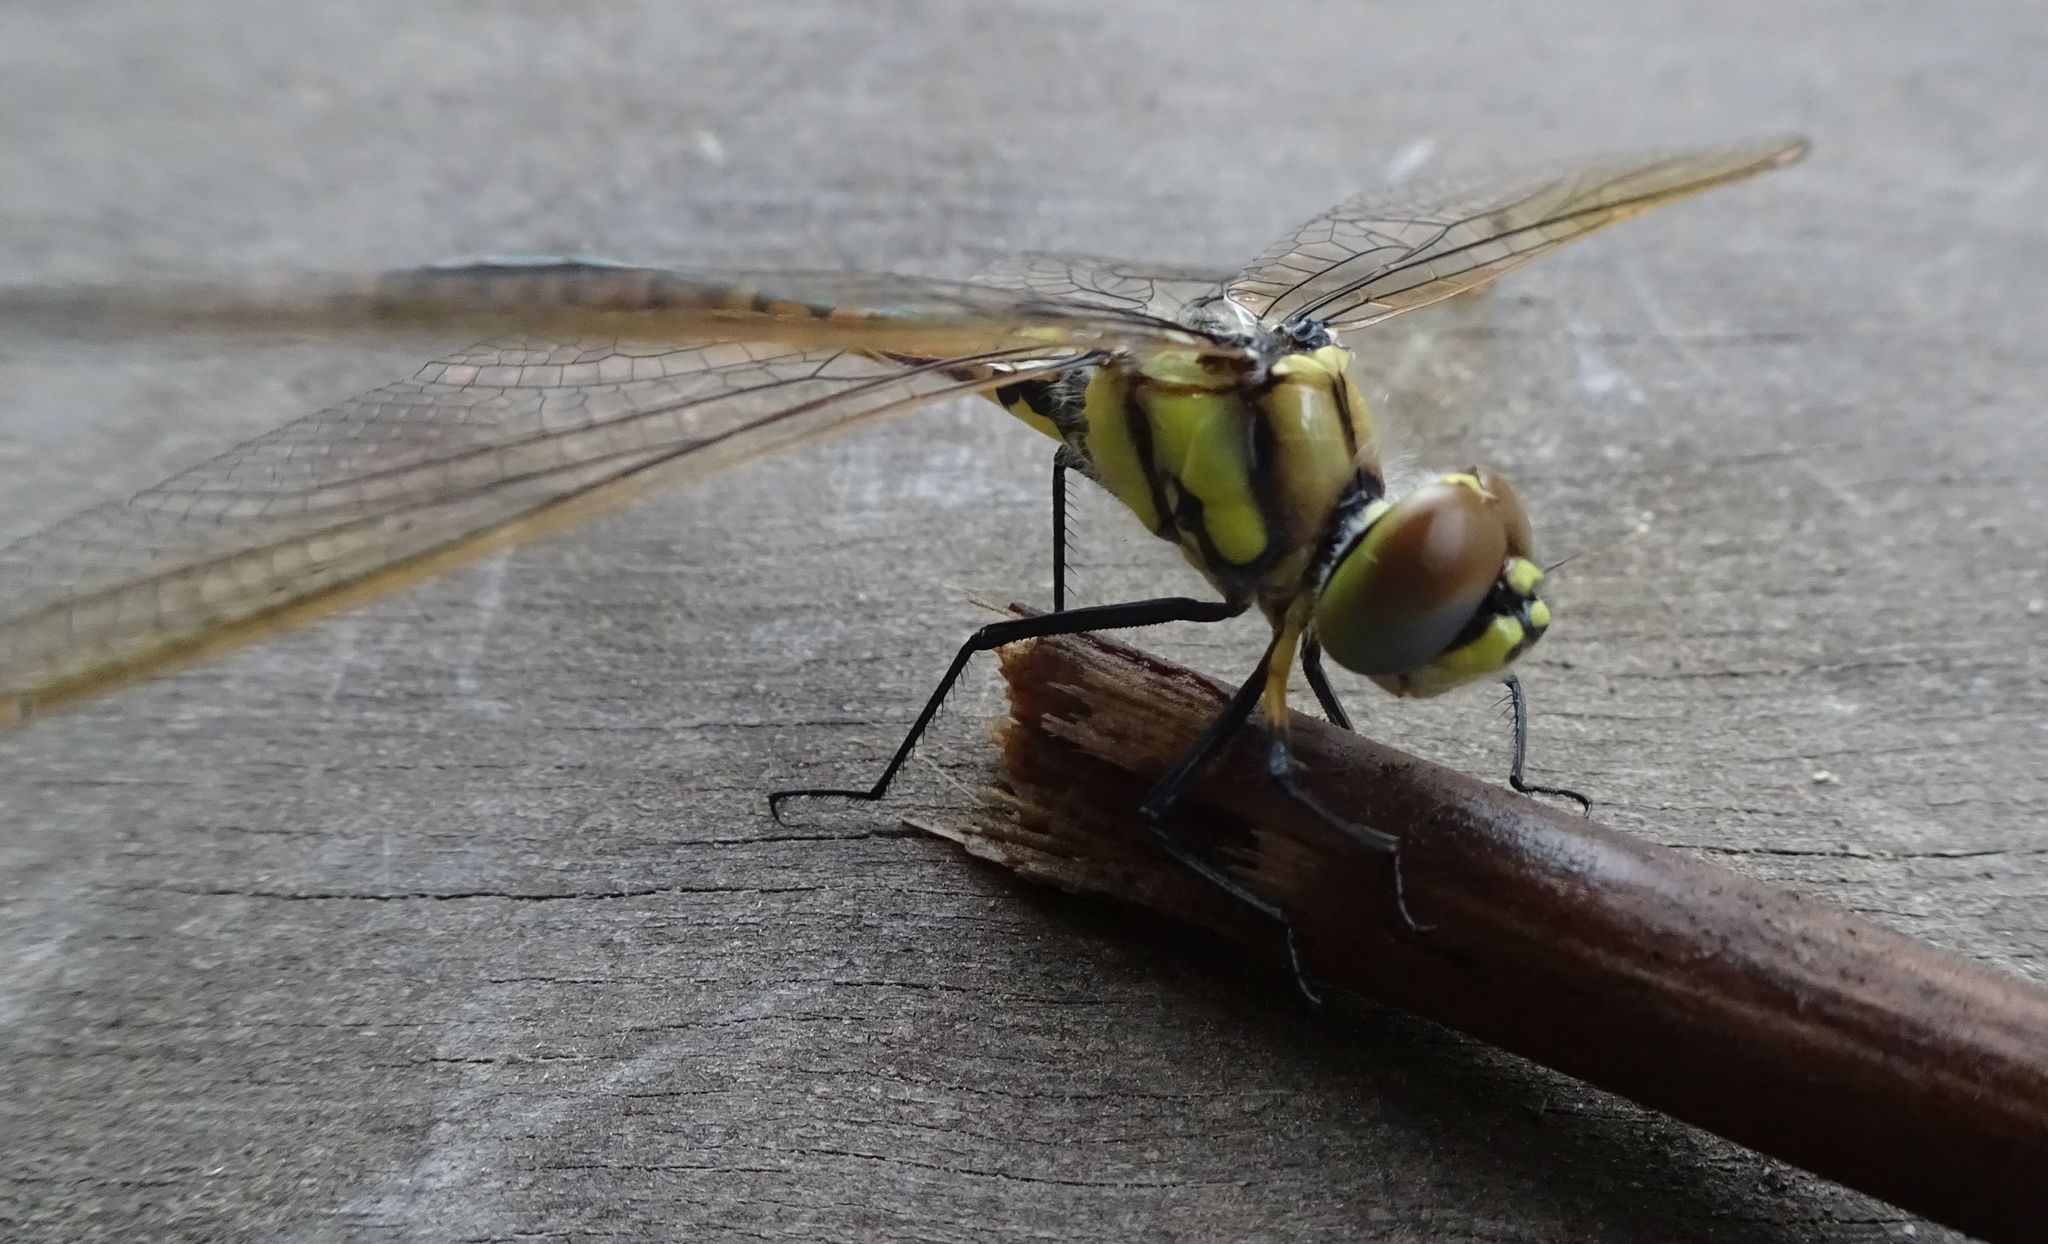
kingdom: Animalia
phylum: Arthropoda
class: Insecta
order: Odonata
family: Corduliidae
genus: Hemicordulia
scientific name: Hemicordulia tau
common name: Tau emerald
